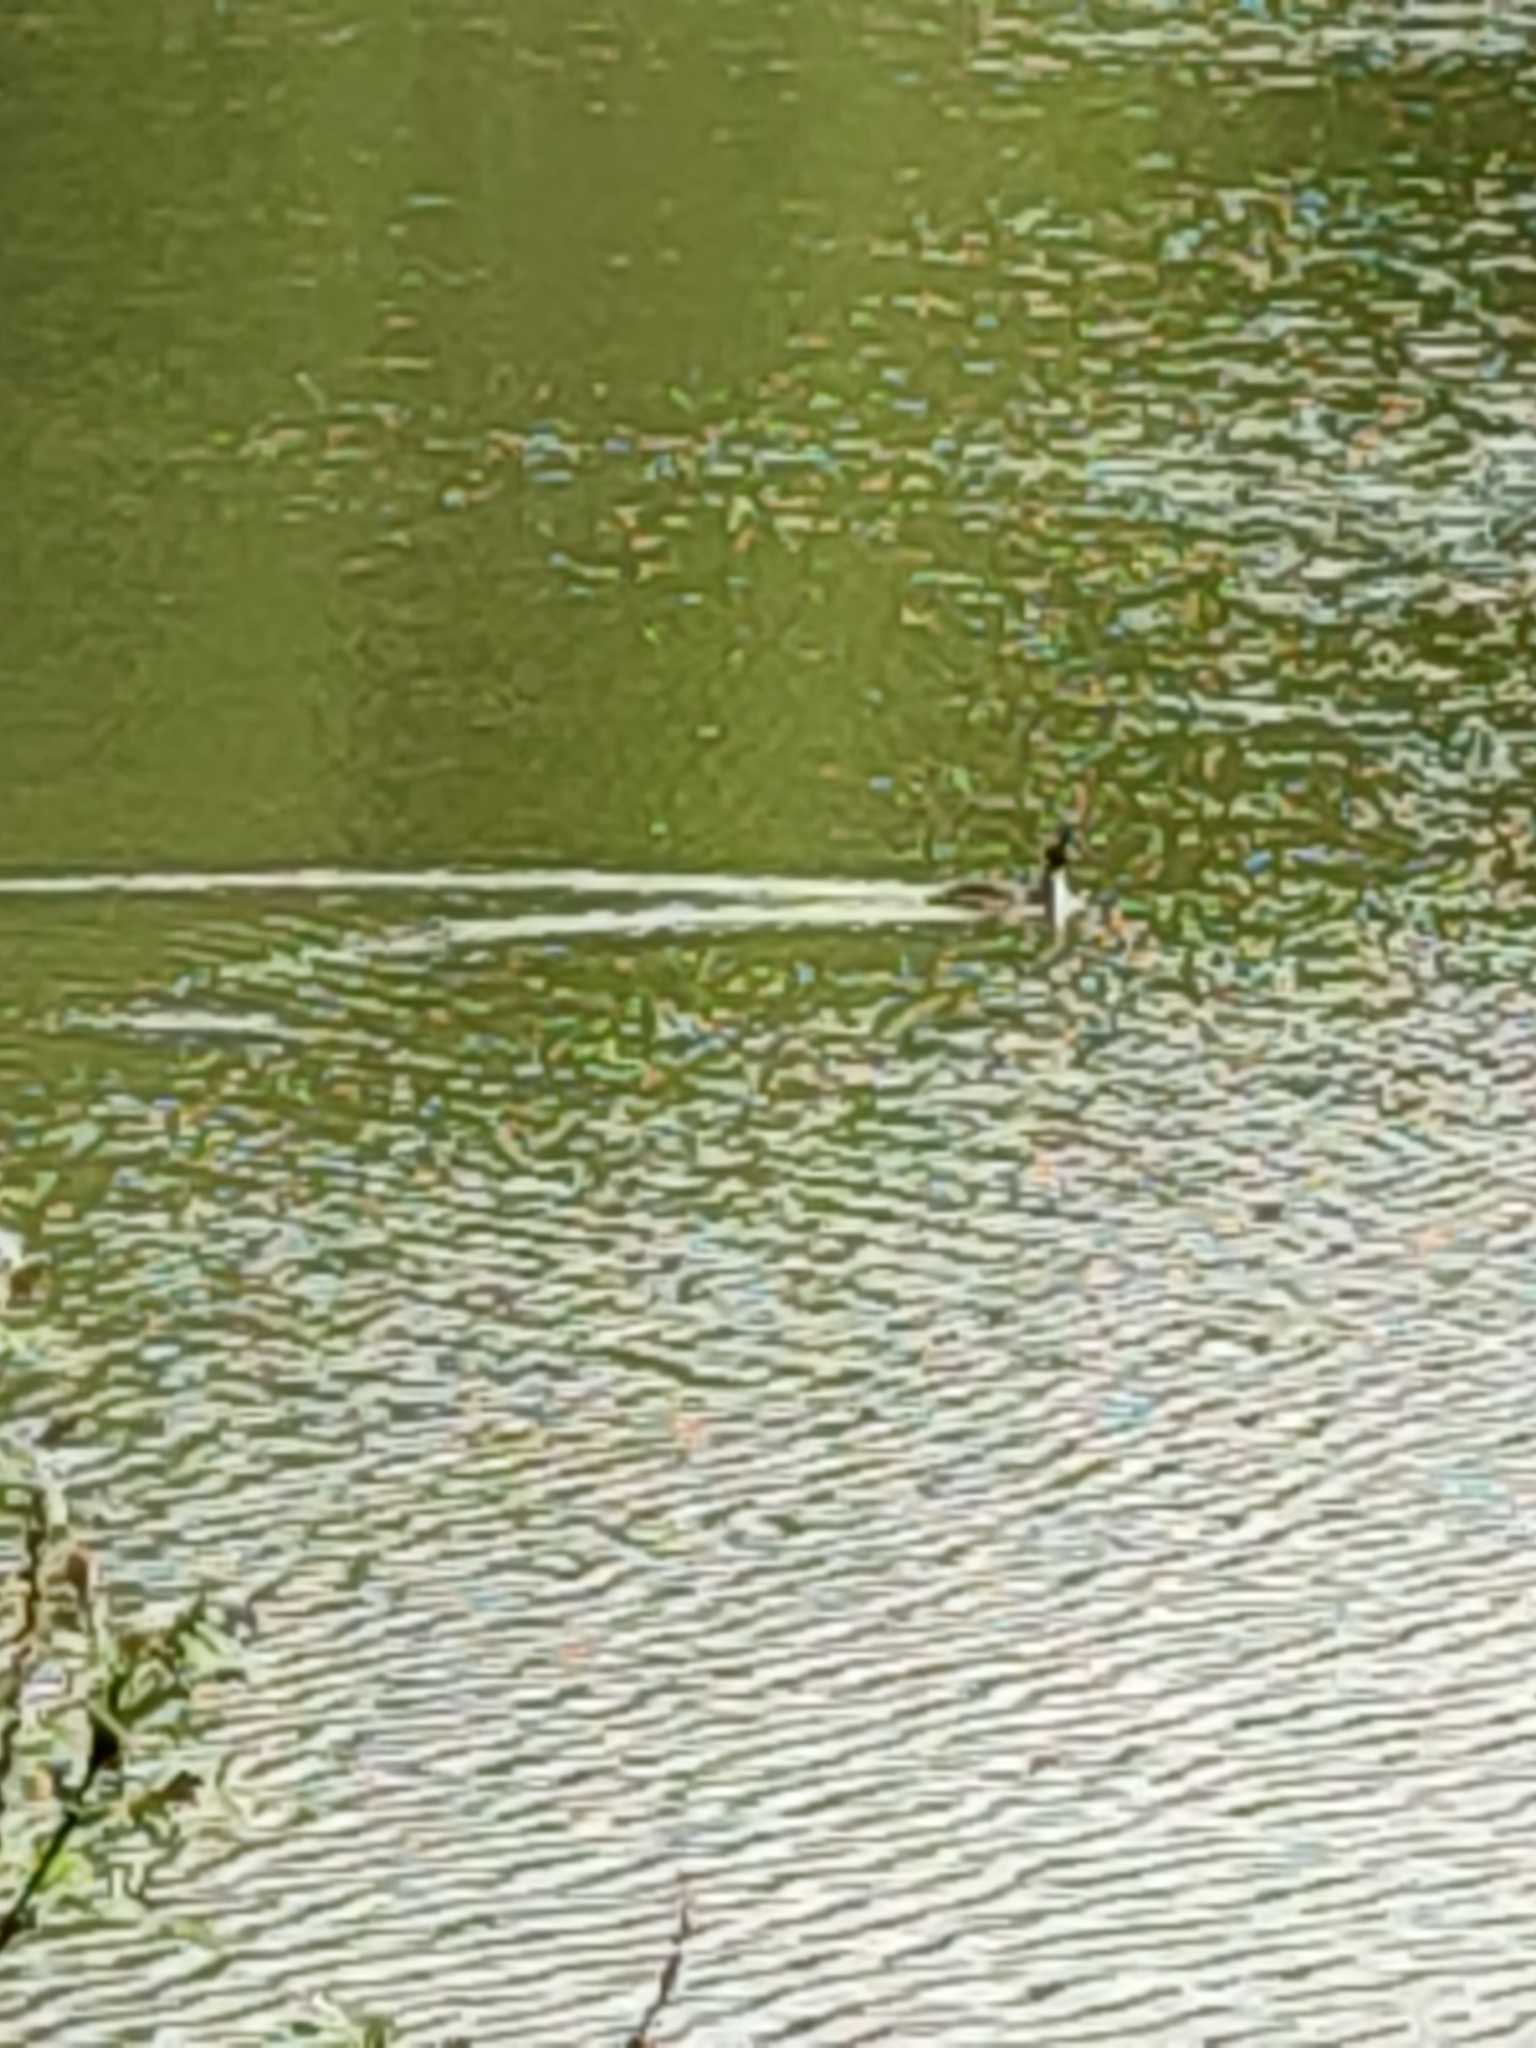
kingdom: Animalia
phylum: Chordata
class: Aves
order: Podicipediformes
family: Podicipedidae
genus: Podiceps
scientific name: Podiceps cristatus
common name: Great crested grebe
